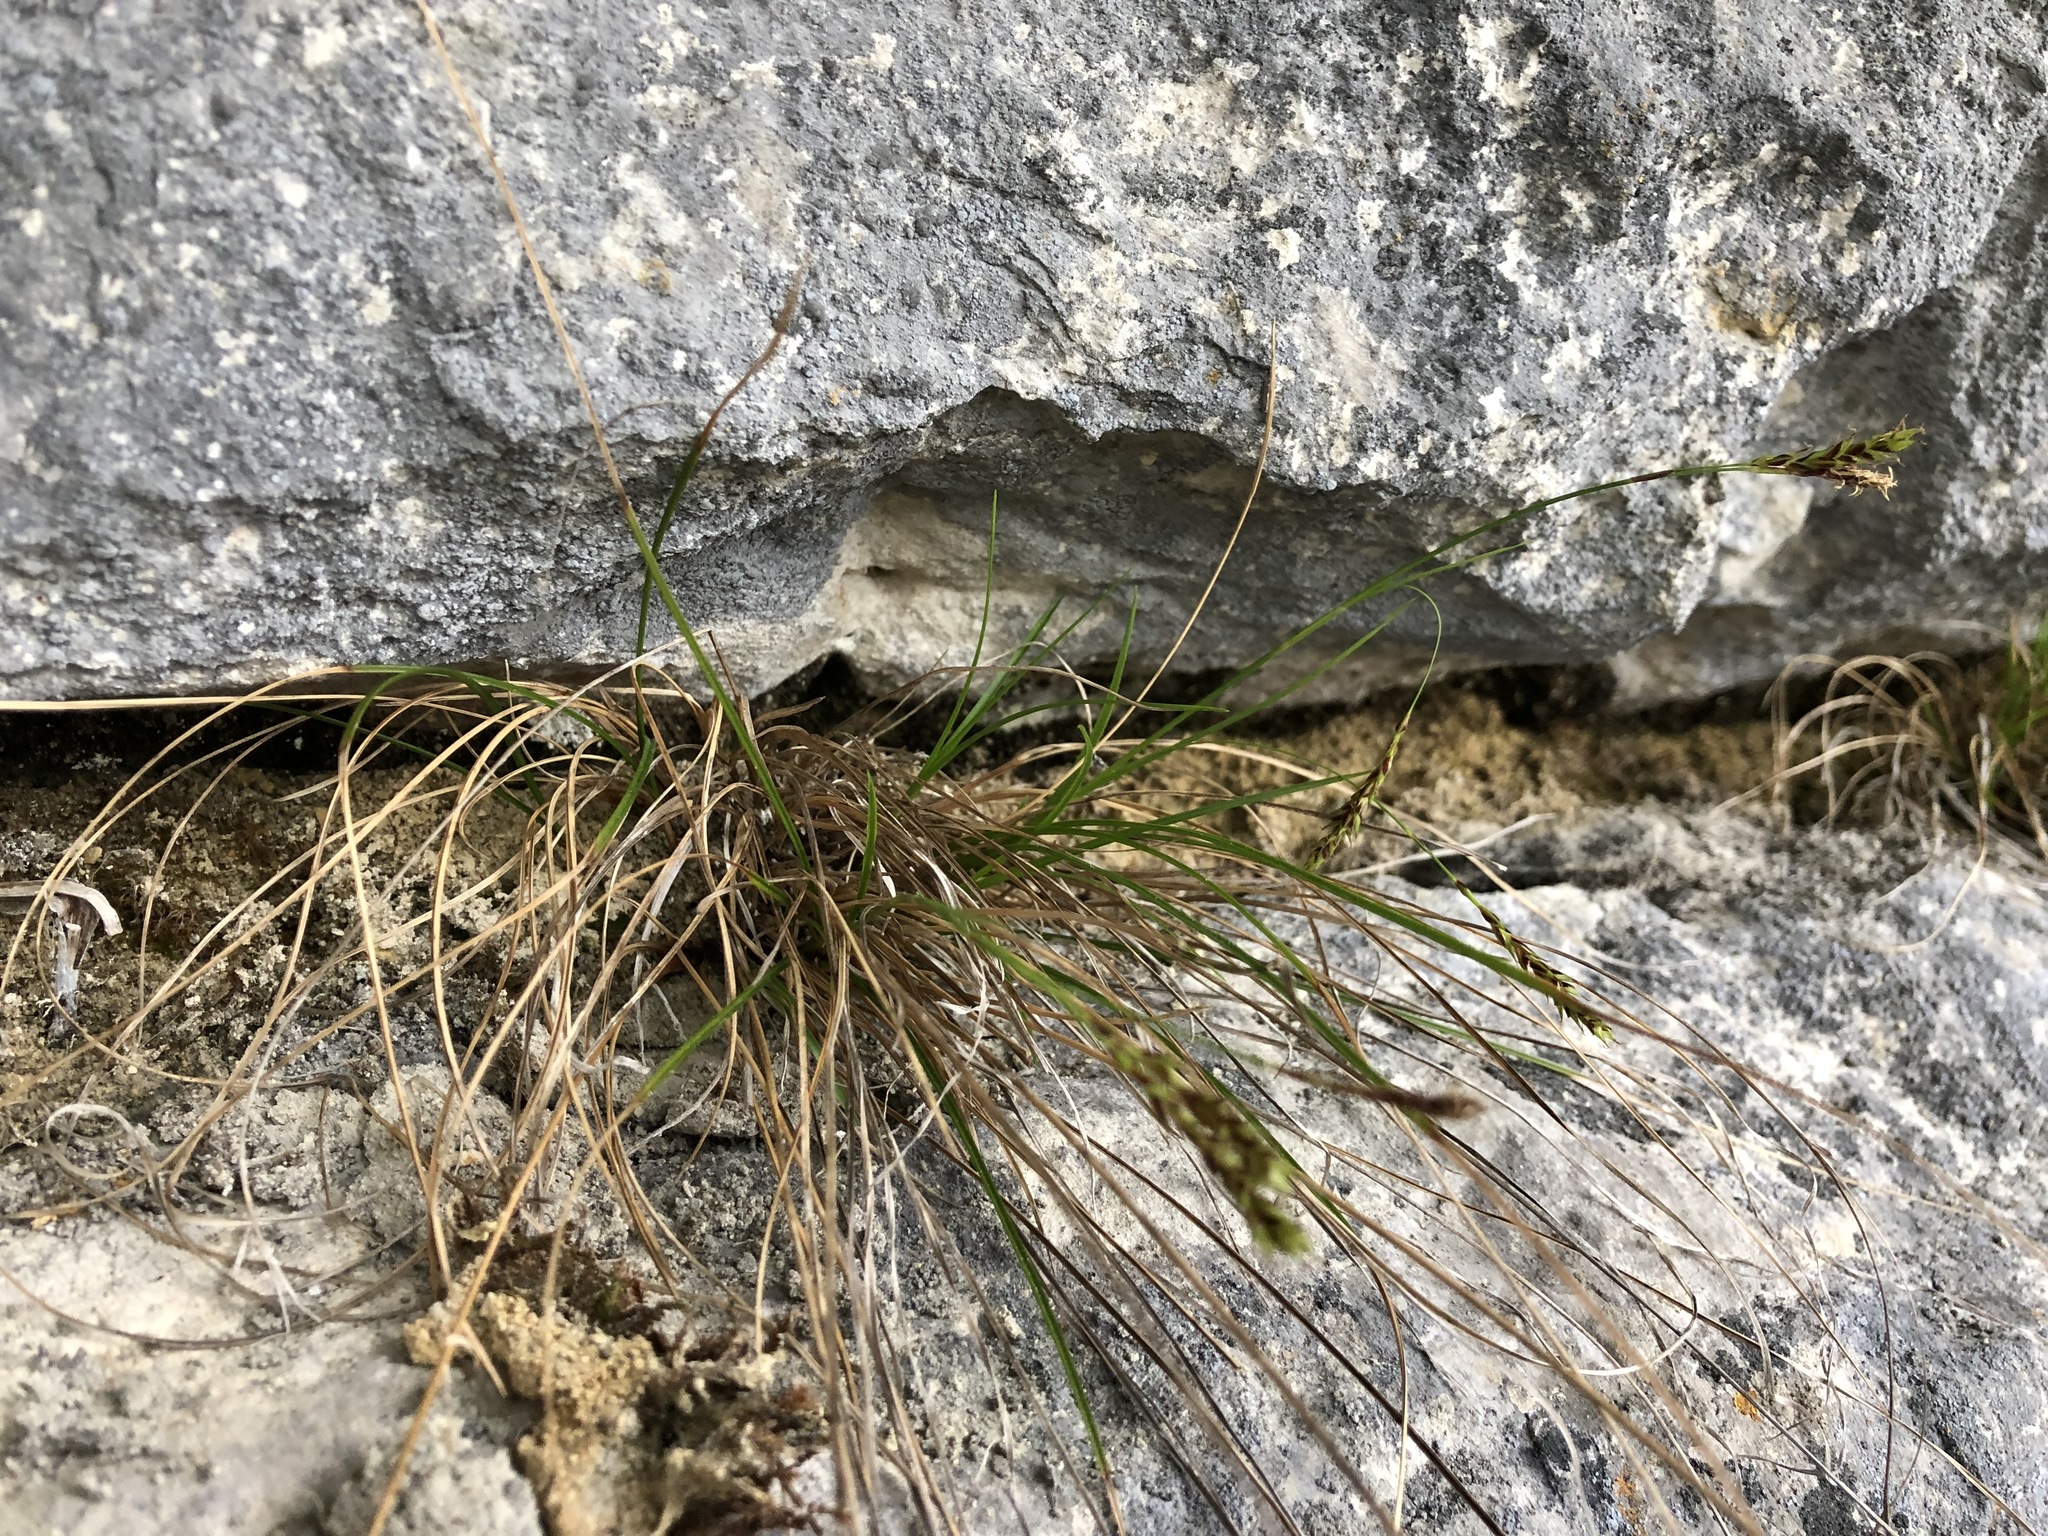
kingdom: Plantae
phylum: Tracheophyta
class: Liliopsida
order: Poales
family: Cyperaceae
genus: Carex
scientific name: Carex brachystachys
